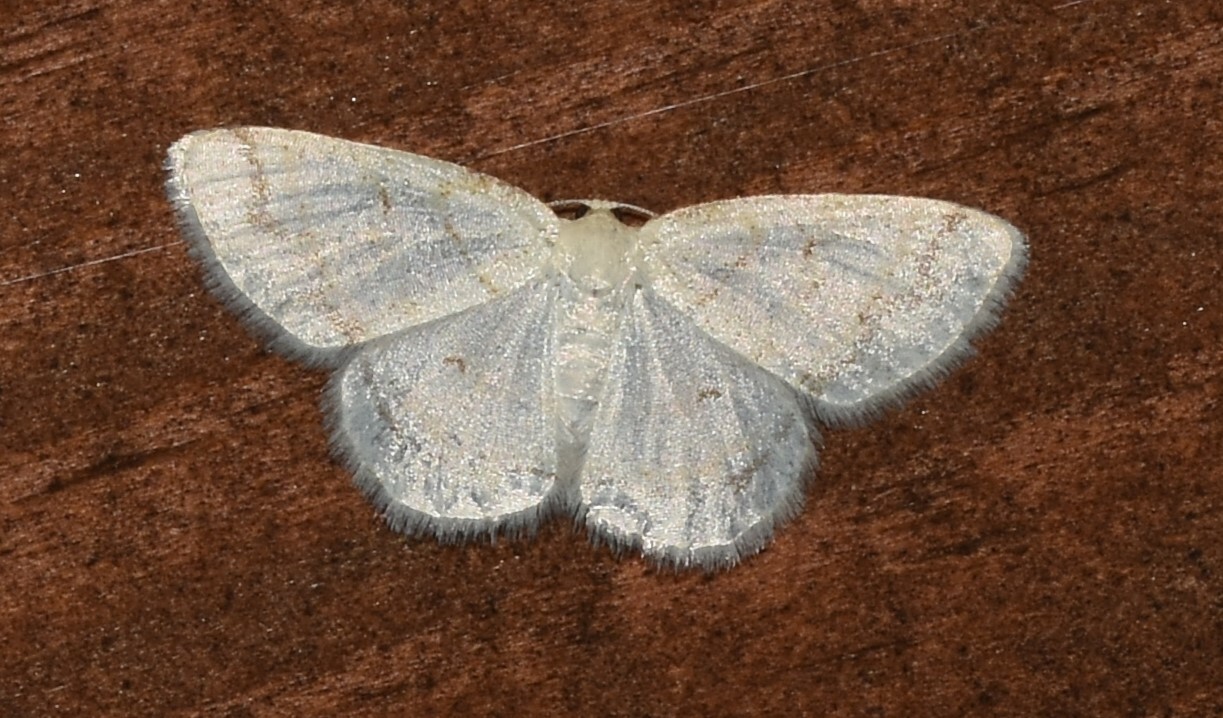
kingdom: Animalia
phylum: Arthropoda
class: Insecta
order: Lepidoptera
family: Geometridae
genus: Protitame
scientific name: Protitame virginalis
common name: Virgin moth
